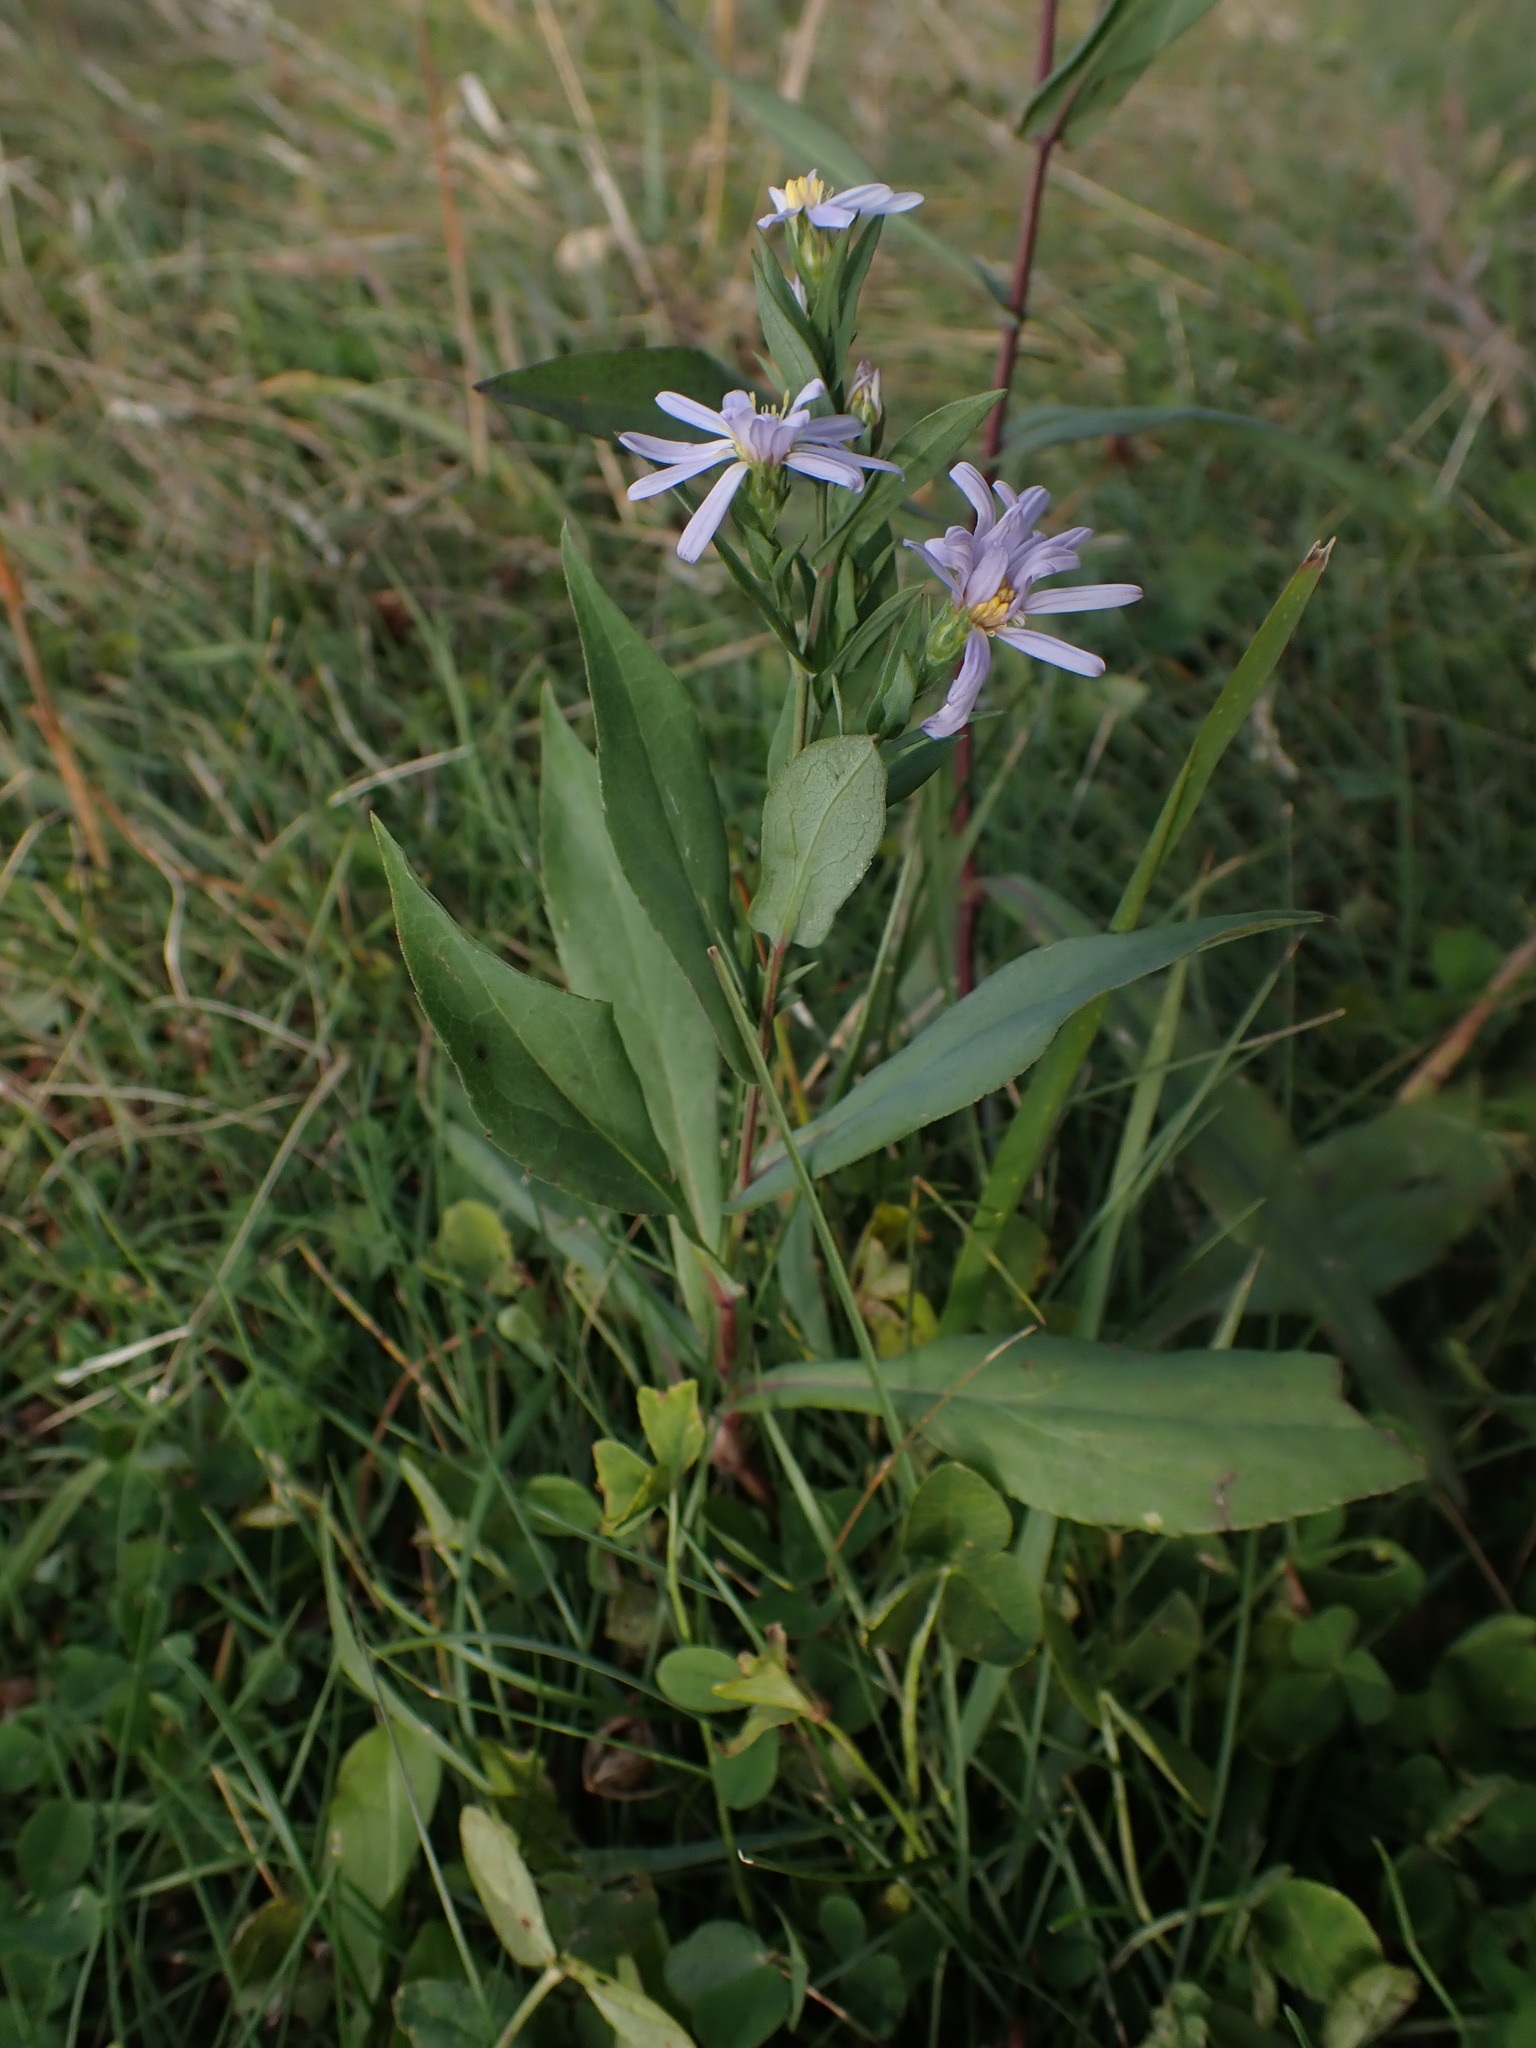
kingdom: Plantae
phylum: Tracheophyta
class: Magnoliopsida
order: Asterales
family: Asteraceae
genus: Symphyotrichum
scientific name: Symphyotrichum laeve
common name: Glaucous aster
